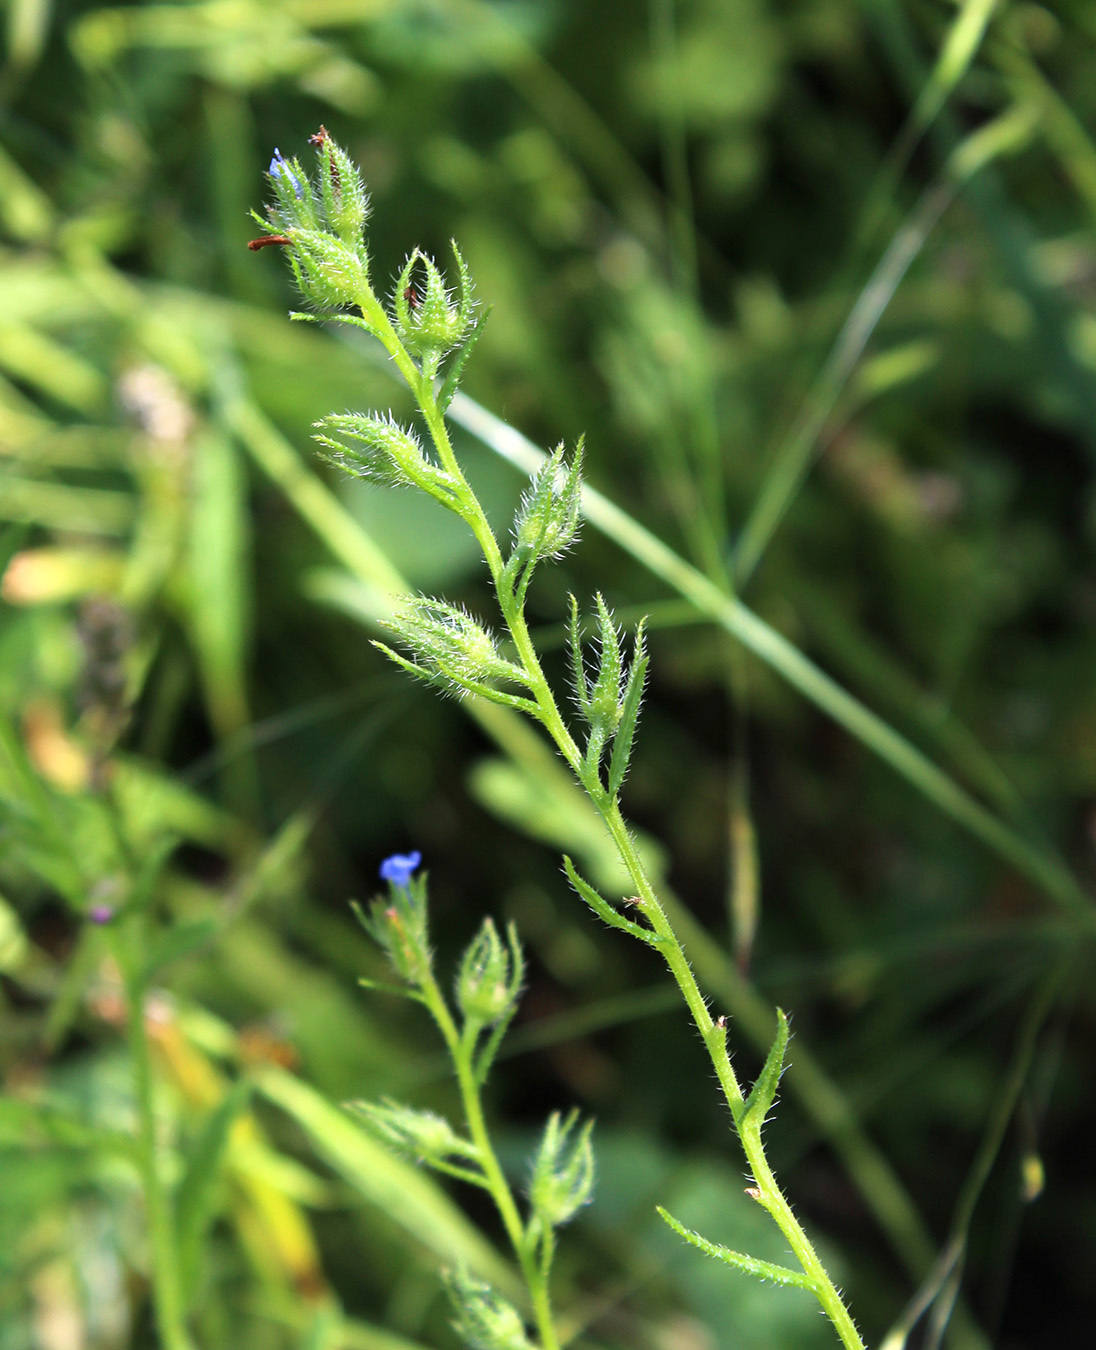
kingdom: Plantae
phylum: Tracheophyta
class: Magnoliopsida
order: Boraginales
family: Boraginaceae
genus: Lycopsis
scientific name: Lycopsis arvensis
